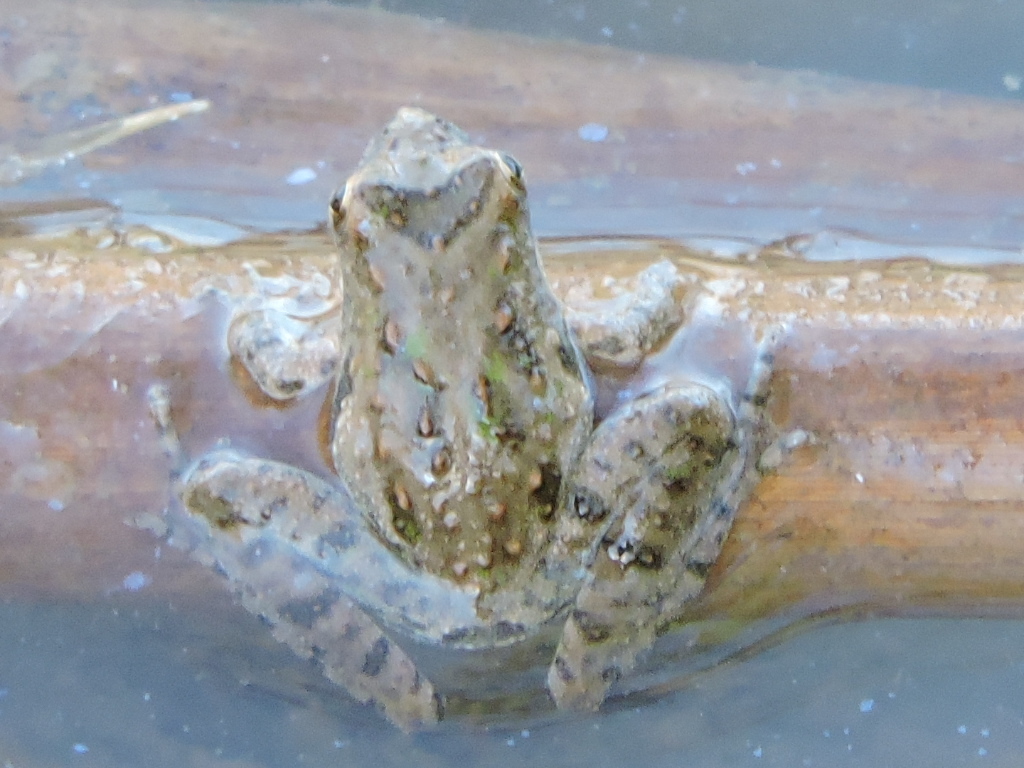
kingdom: Animalia
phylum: Chordata
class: Amphibia
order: Anura
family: Hylidae
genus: Acris
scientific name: Acris blanchardi
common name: Blanchard's cricket frog
